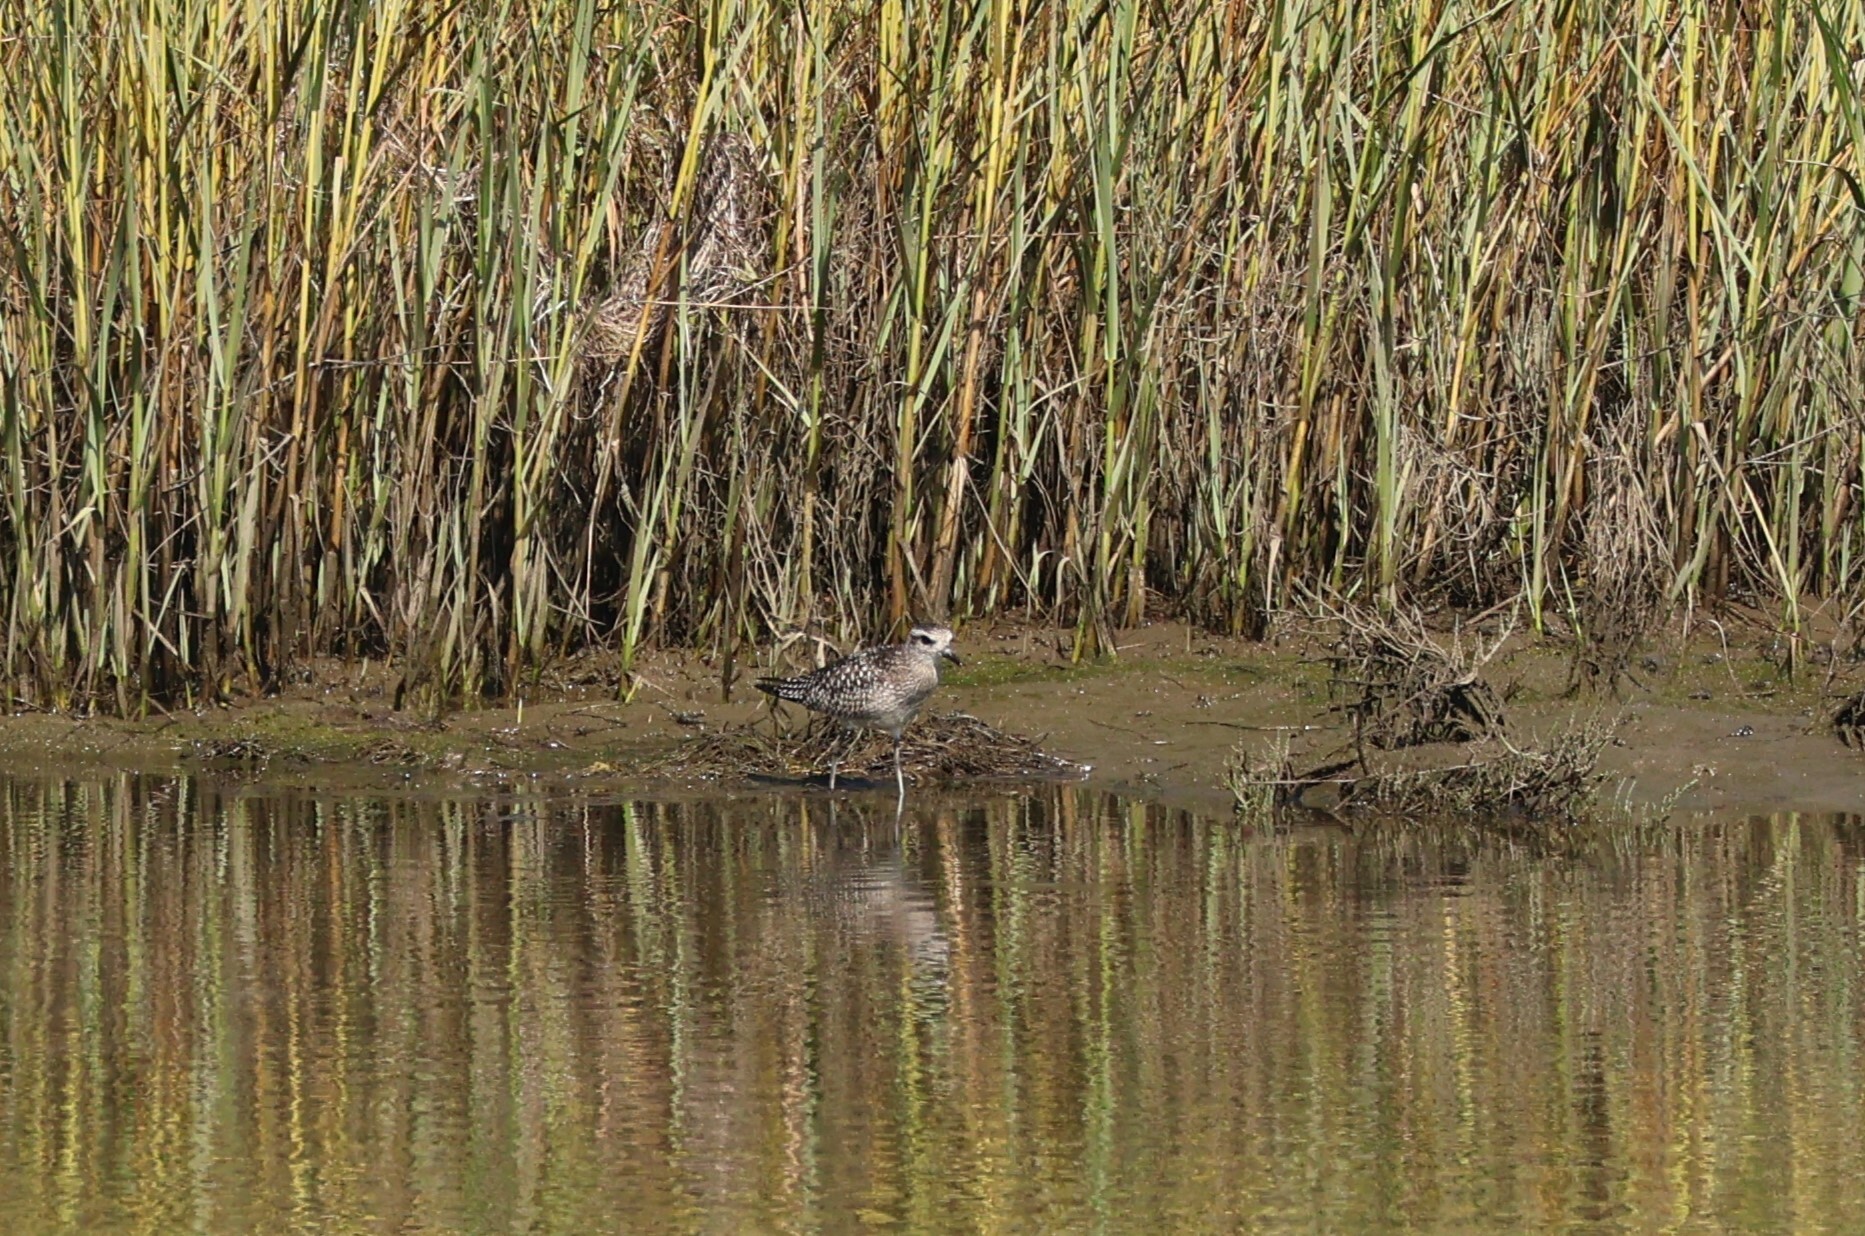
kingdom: Animalia
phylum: Chordata
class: Aves
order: Charadriiformes
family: Charadriidae
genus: Pluvialis
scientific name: Pluvialis squatarola
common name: Grey plover
